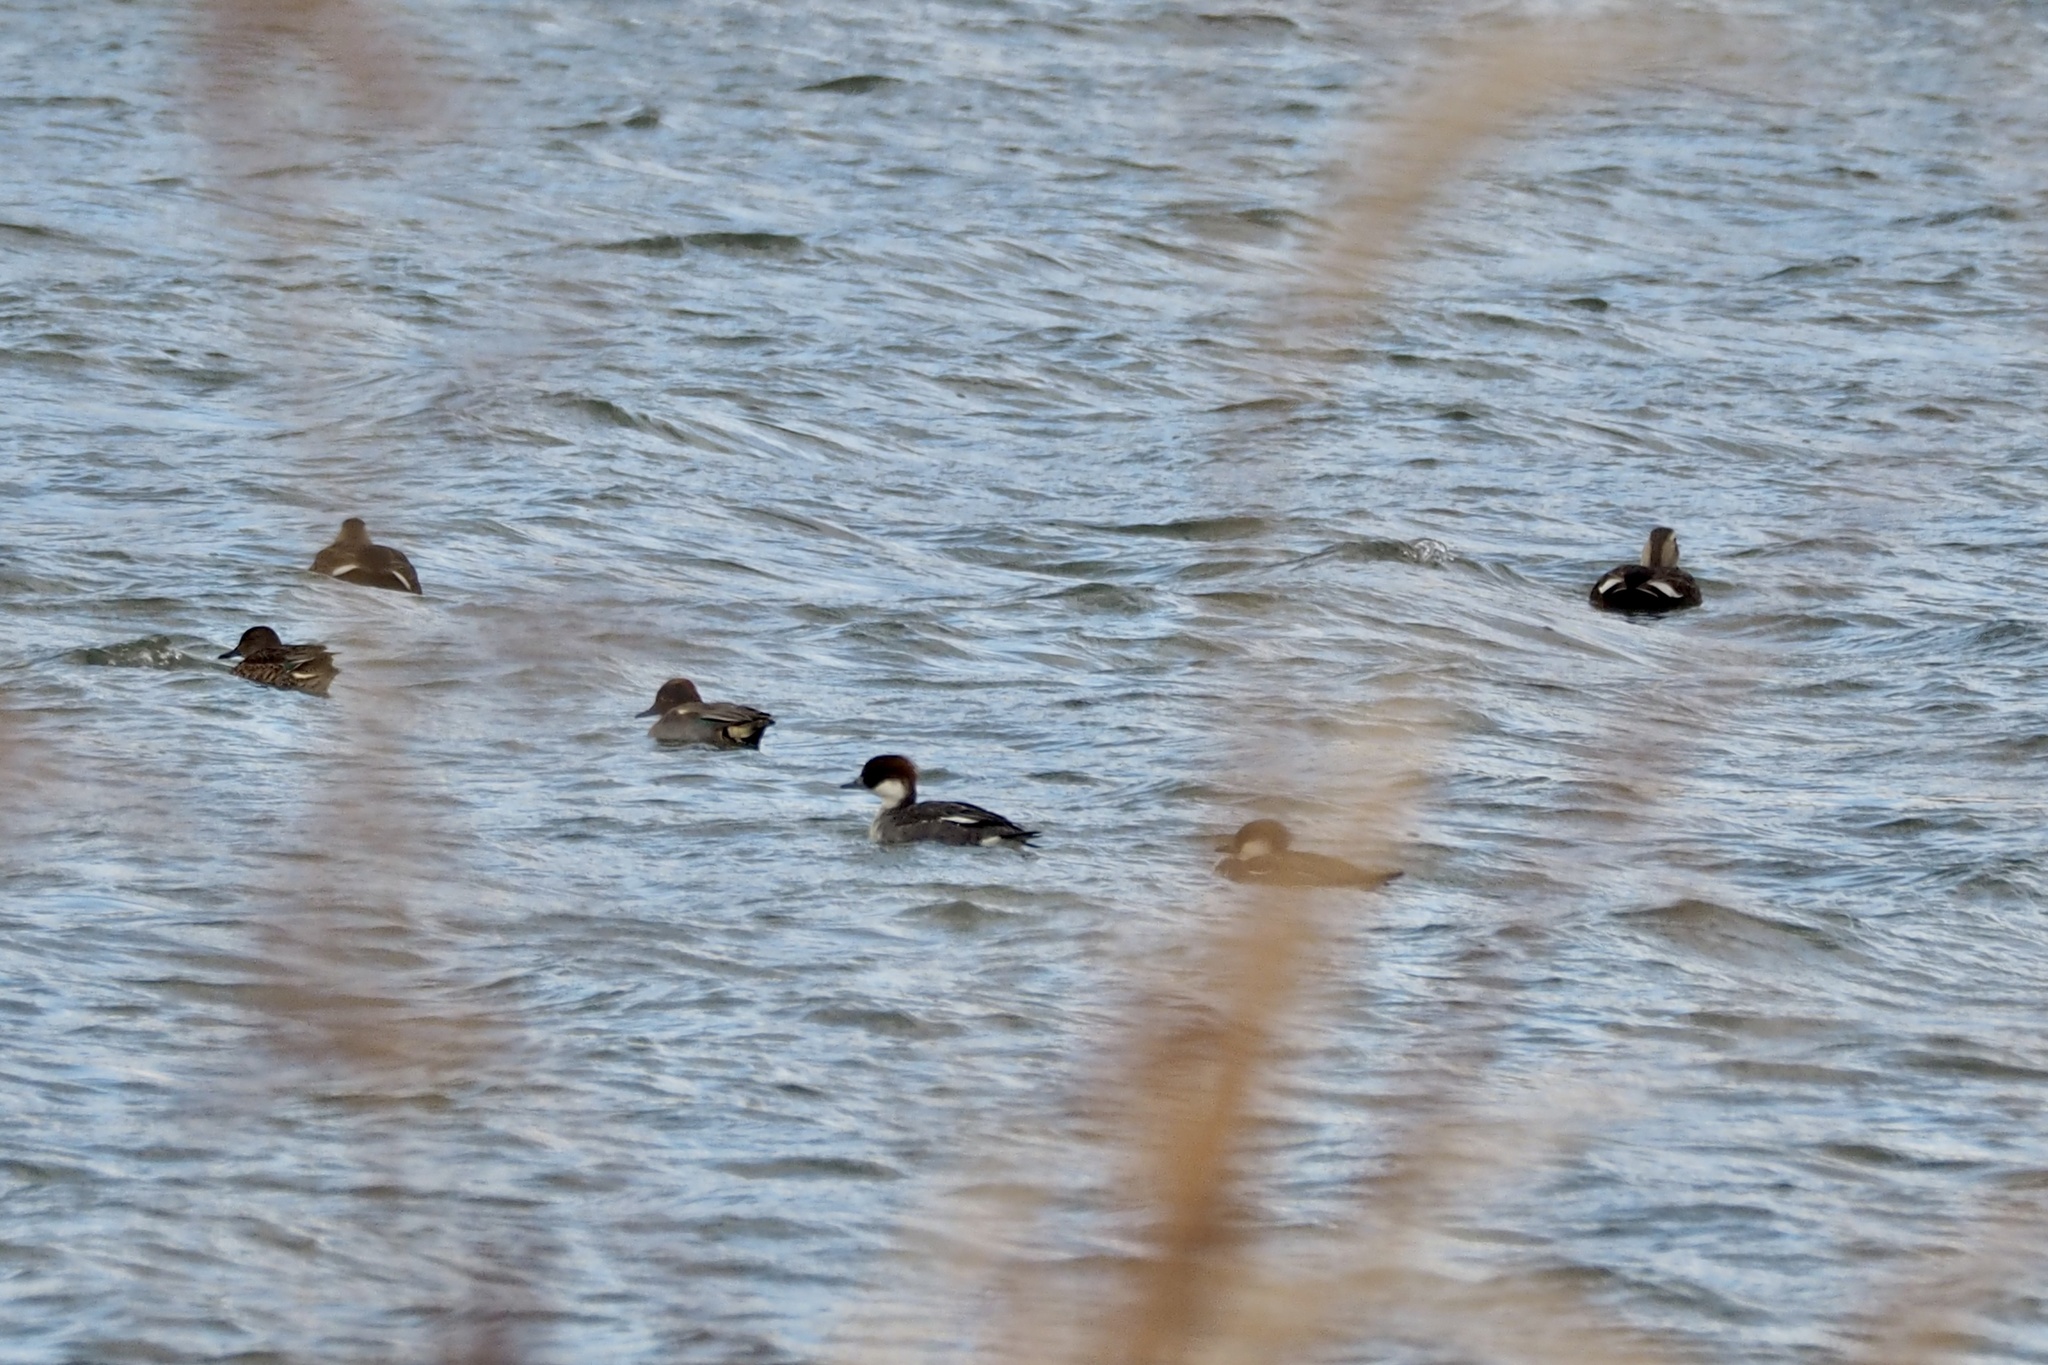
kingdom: Animalia
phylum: Chordata
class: Aves
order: Anseriformes
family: Anatidae
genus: Mergellus
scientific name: Mergellus albellus
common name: Smew
